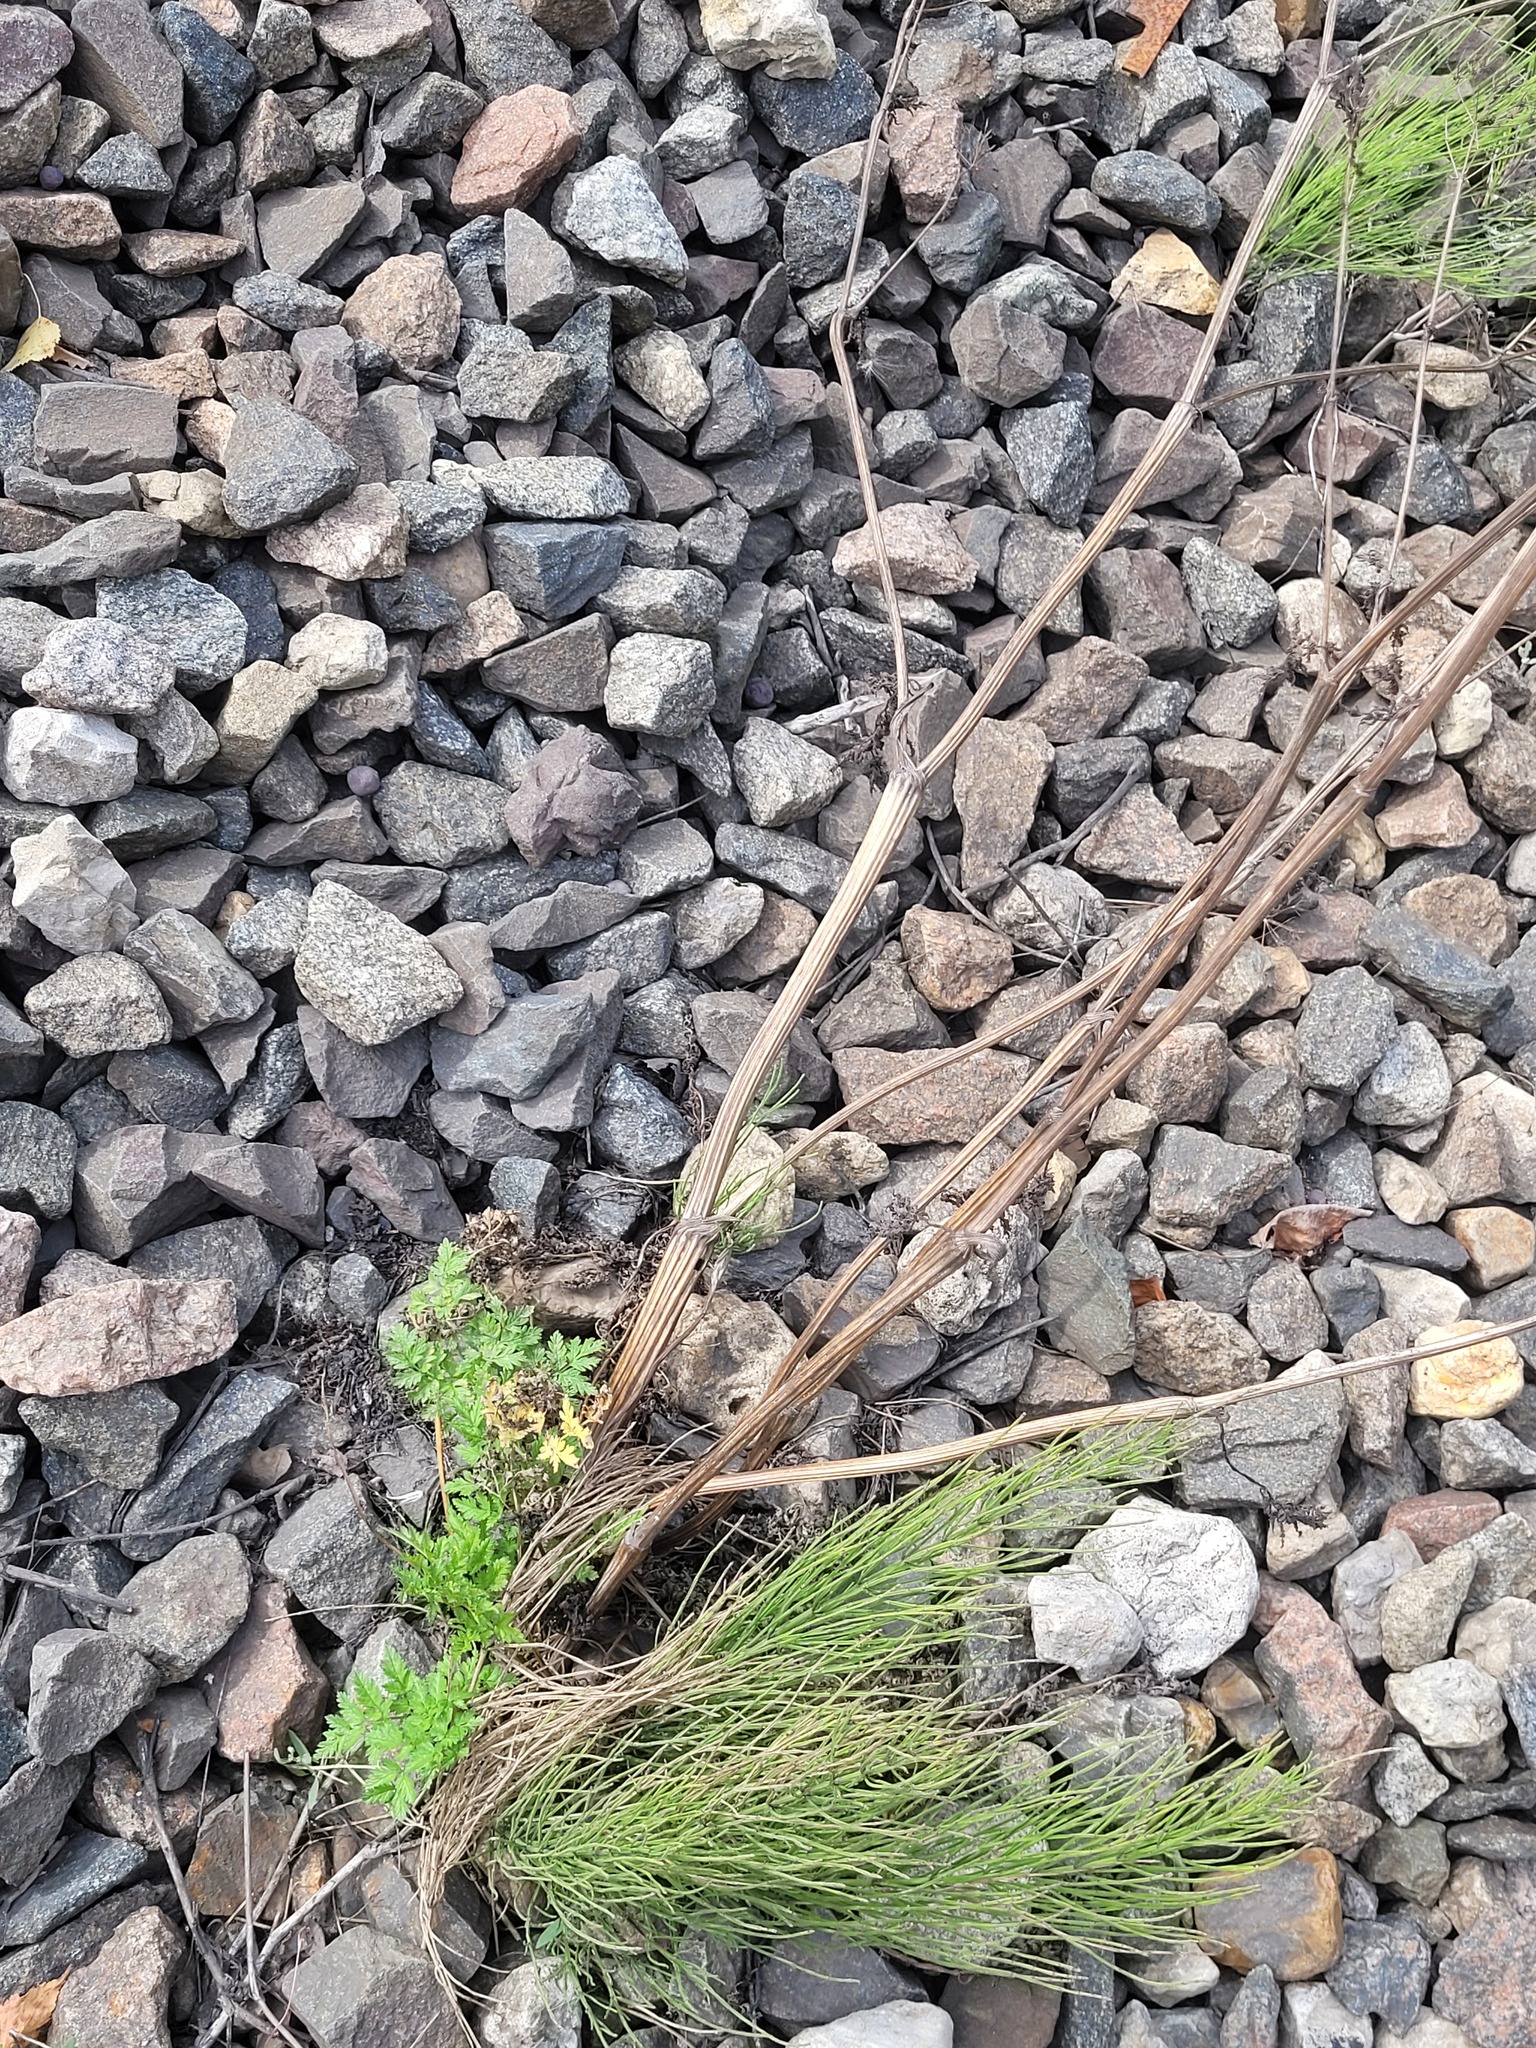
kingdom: Plantae
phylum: Tracheophyta
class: Magnoliopsida
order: Apiales
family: Apiaceae
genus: Anthriscus
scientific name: Anthriscus sylvestris
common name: Cow parsley
